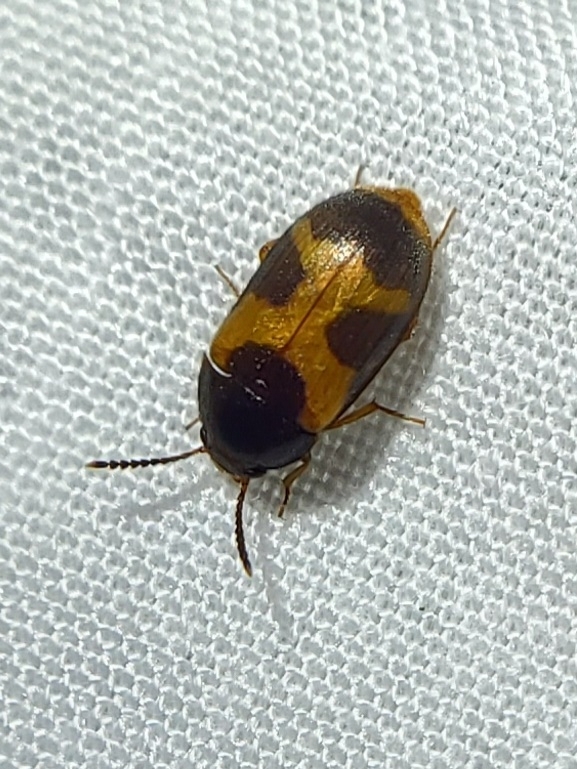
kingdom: Animalia
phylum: Arthropoda
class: Insecta
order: Coleoptera
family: Mycetophagidae
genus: Mycetophagus
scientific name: Mycetophagus punctatus
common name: Hairy fungus beetle
